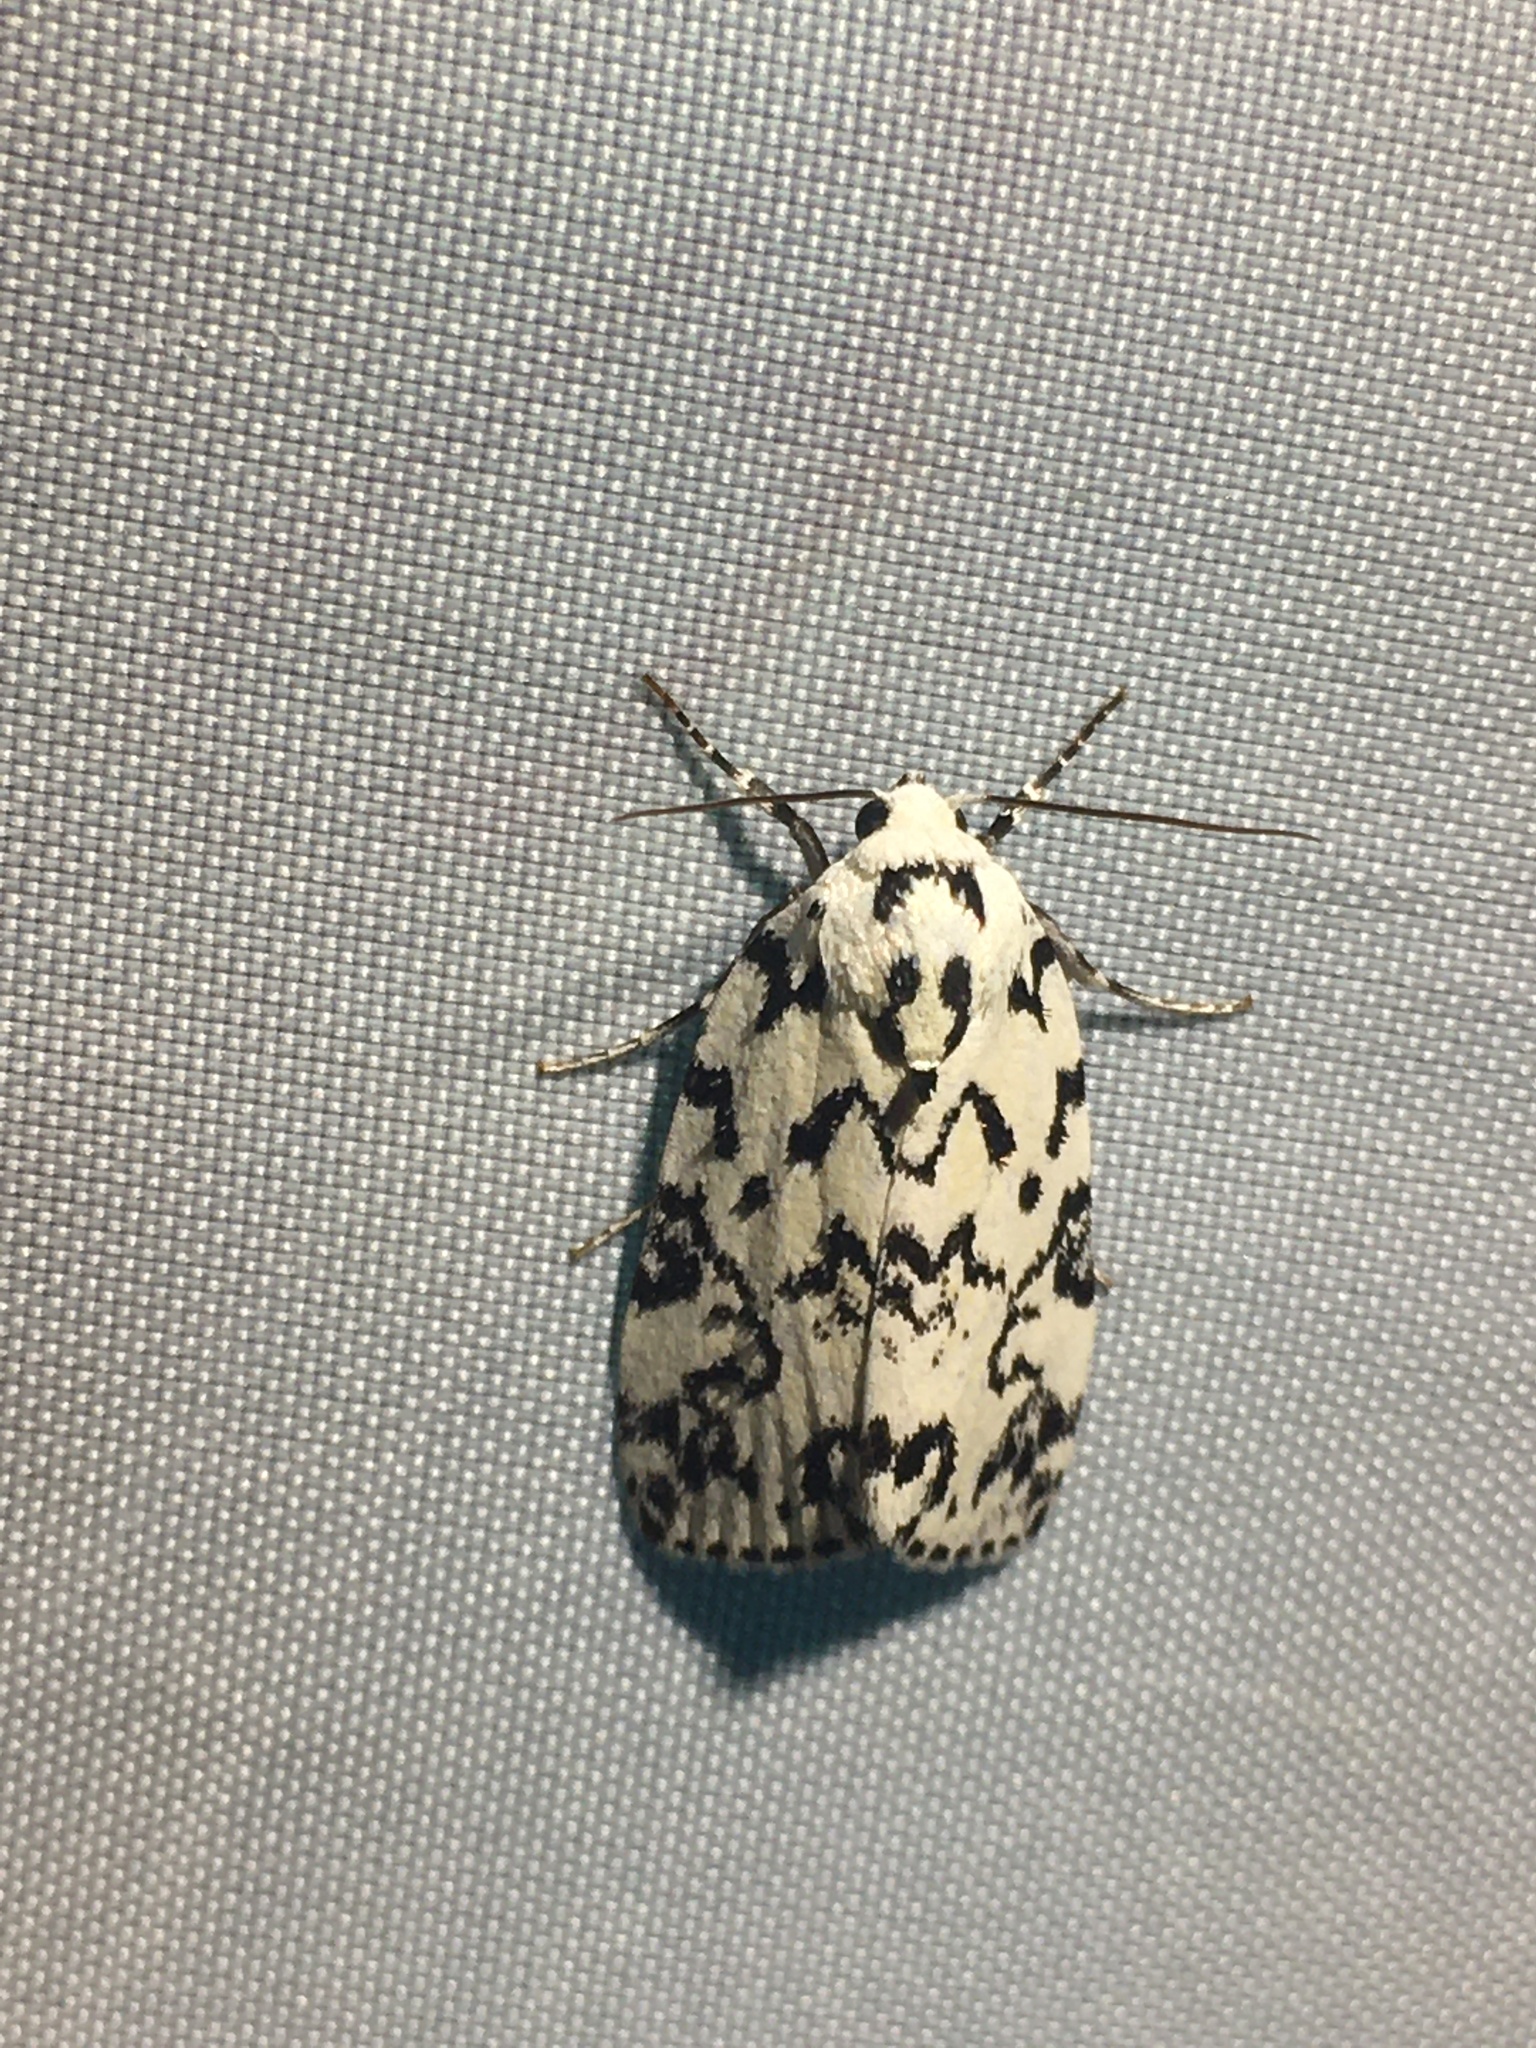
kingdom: Animalia
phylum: Arthropoda
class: Insecta
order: Lepidoptera
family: Noctuidae
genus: Polygrammate
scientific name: Polygrammate hebraeicum
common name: Hebrew moth
